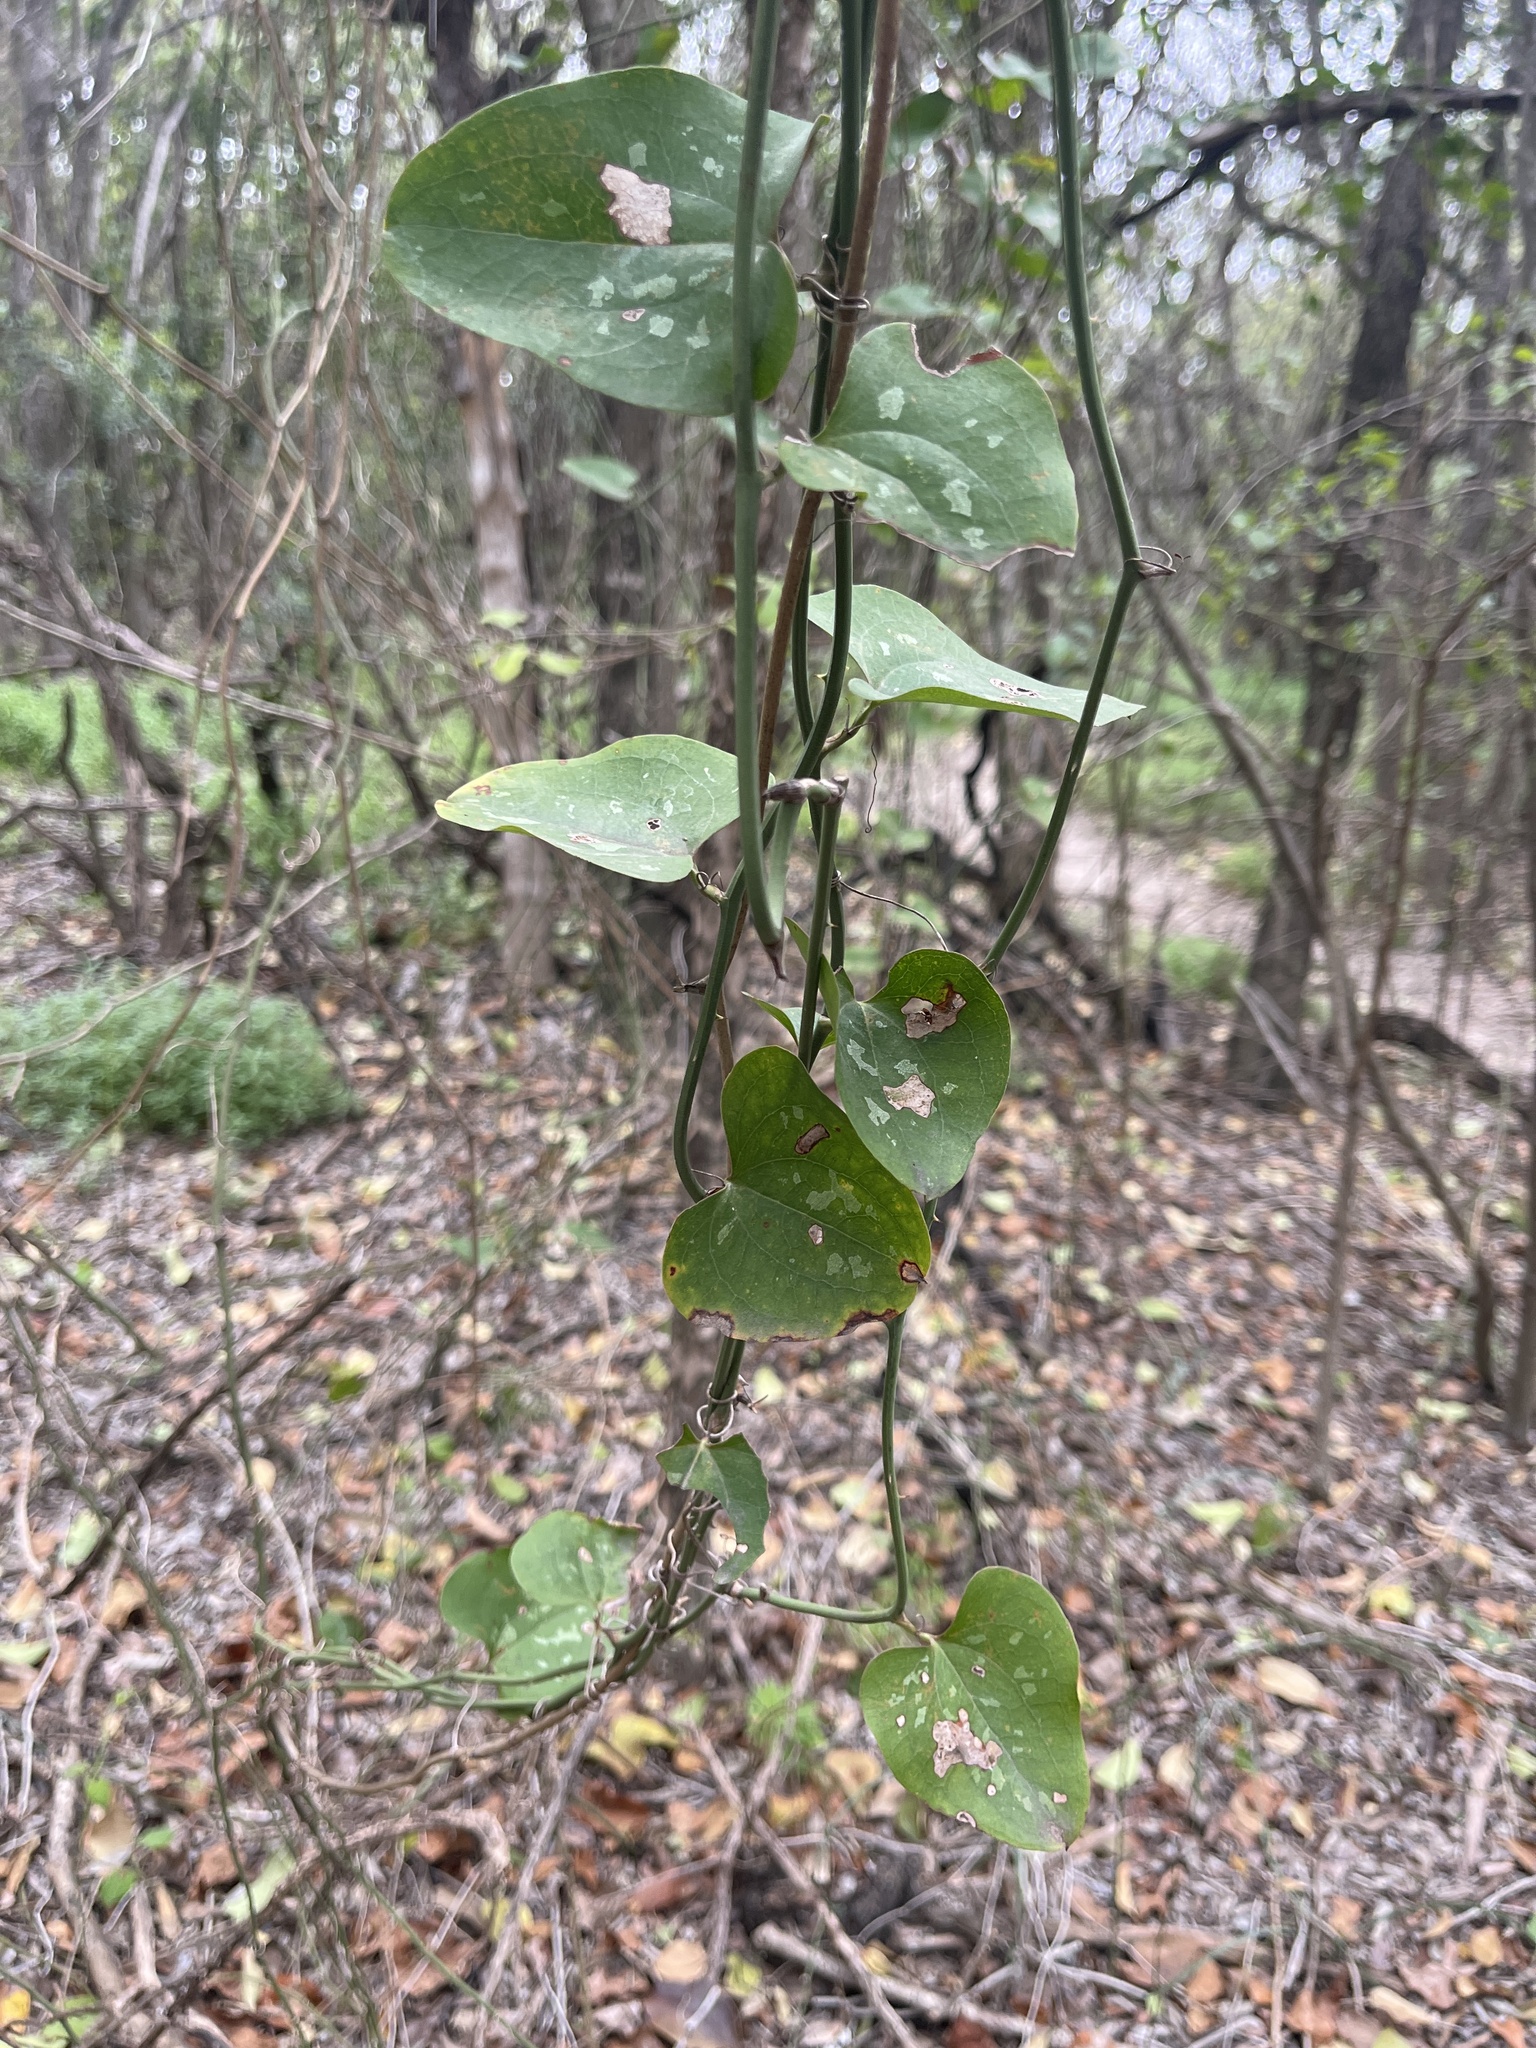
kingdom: Plantae
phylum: Tracheophyta
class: Liliopsida
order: Liliales
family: Smilacaceae
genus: Smilax
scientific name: Smilax bona-nox
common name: Catbrier
